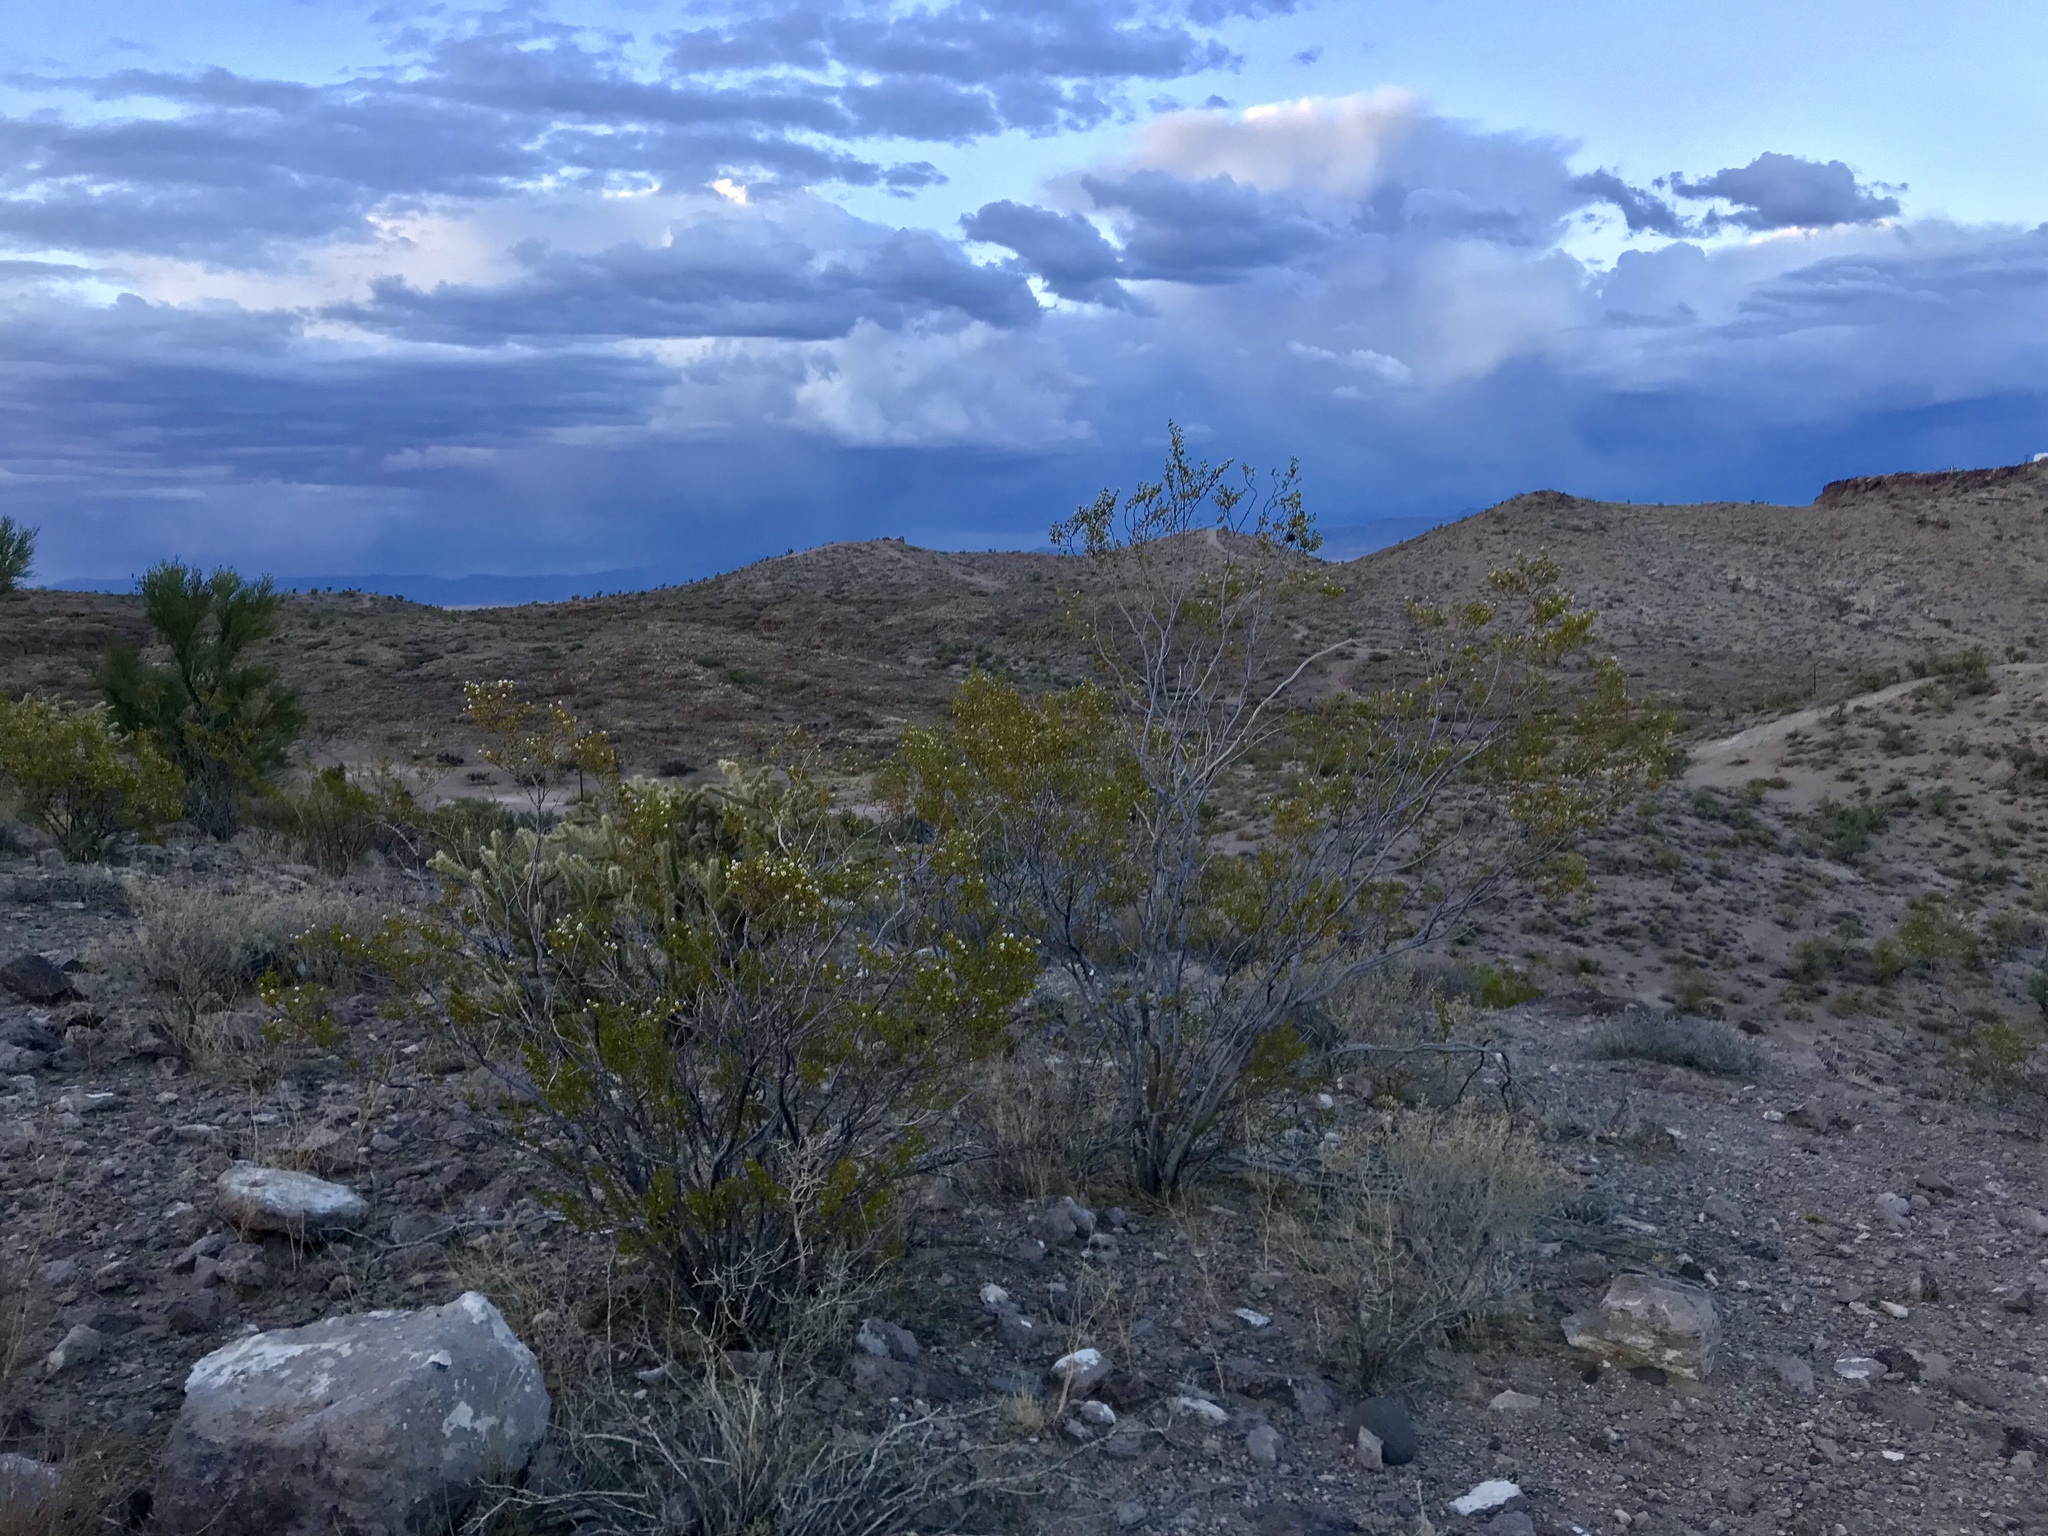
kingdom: Plantae
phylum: Tracheophyta
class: Magnoliopsida
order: Zygophyllales
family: Zygophyllaceae
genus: Larrea
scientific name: Larrea tridentata
